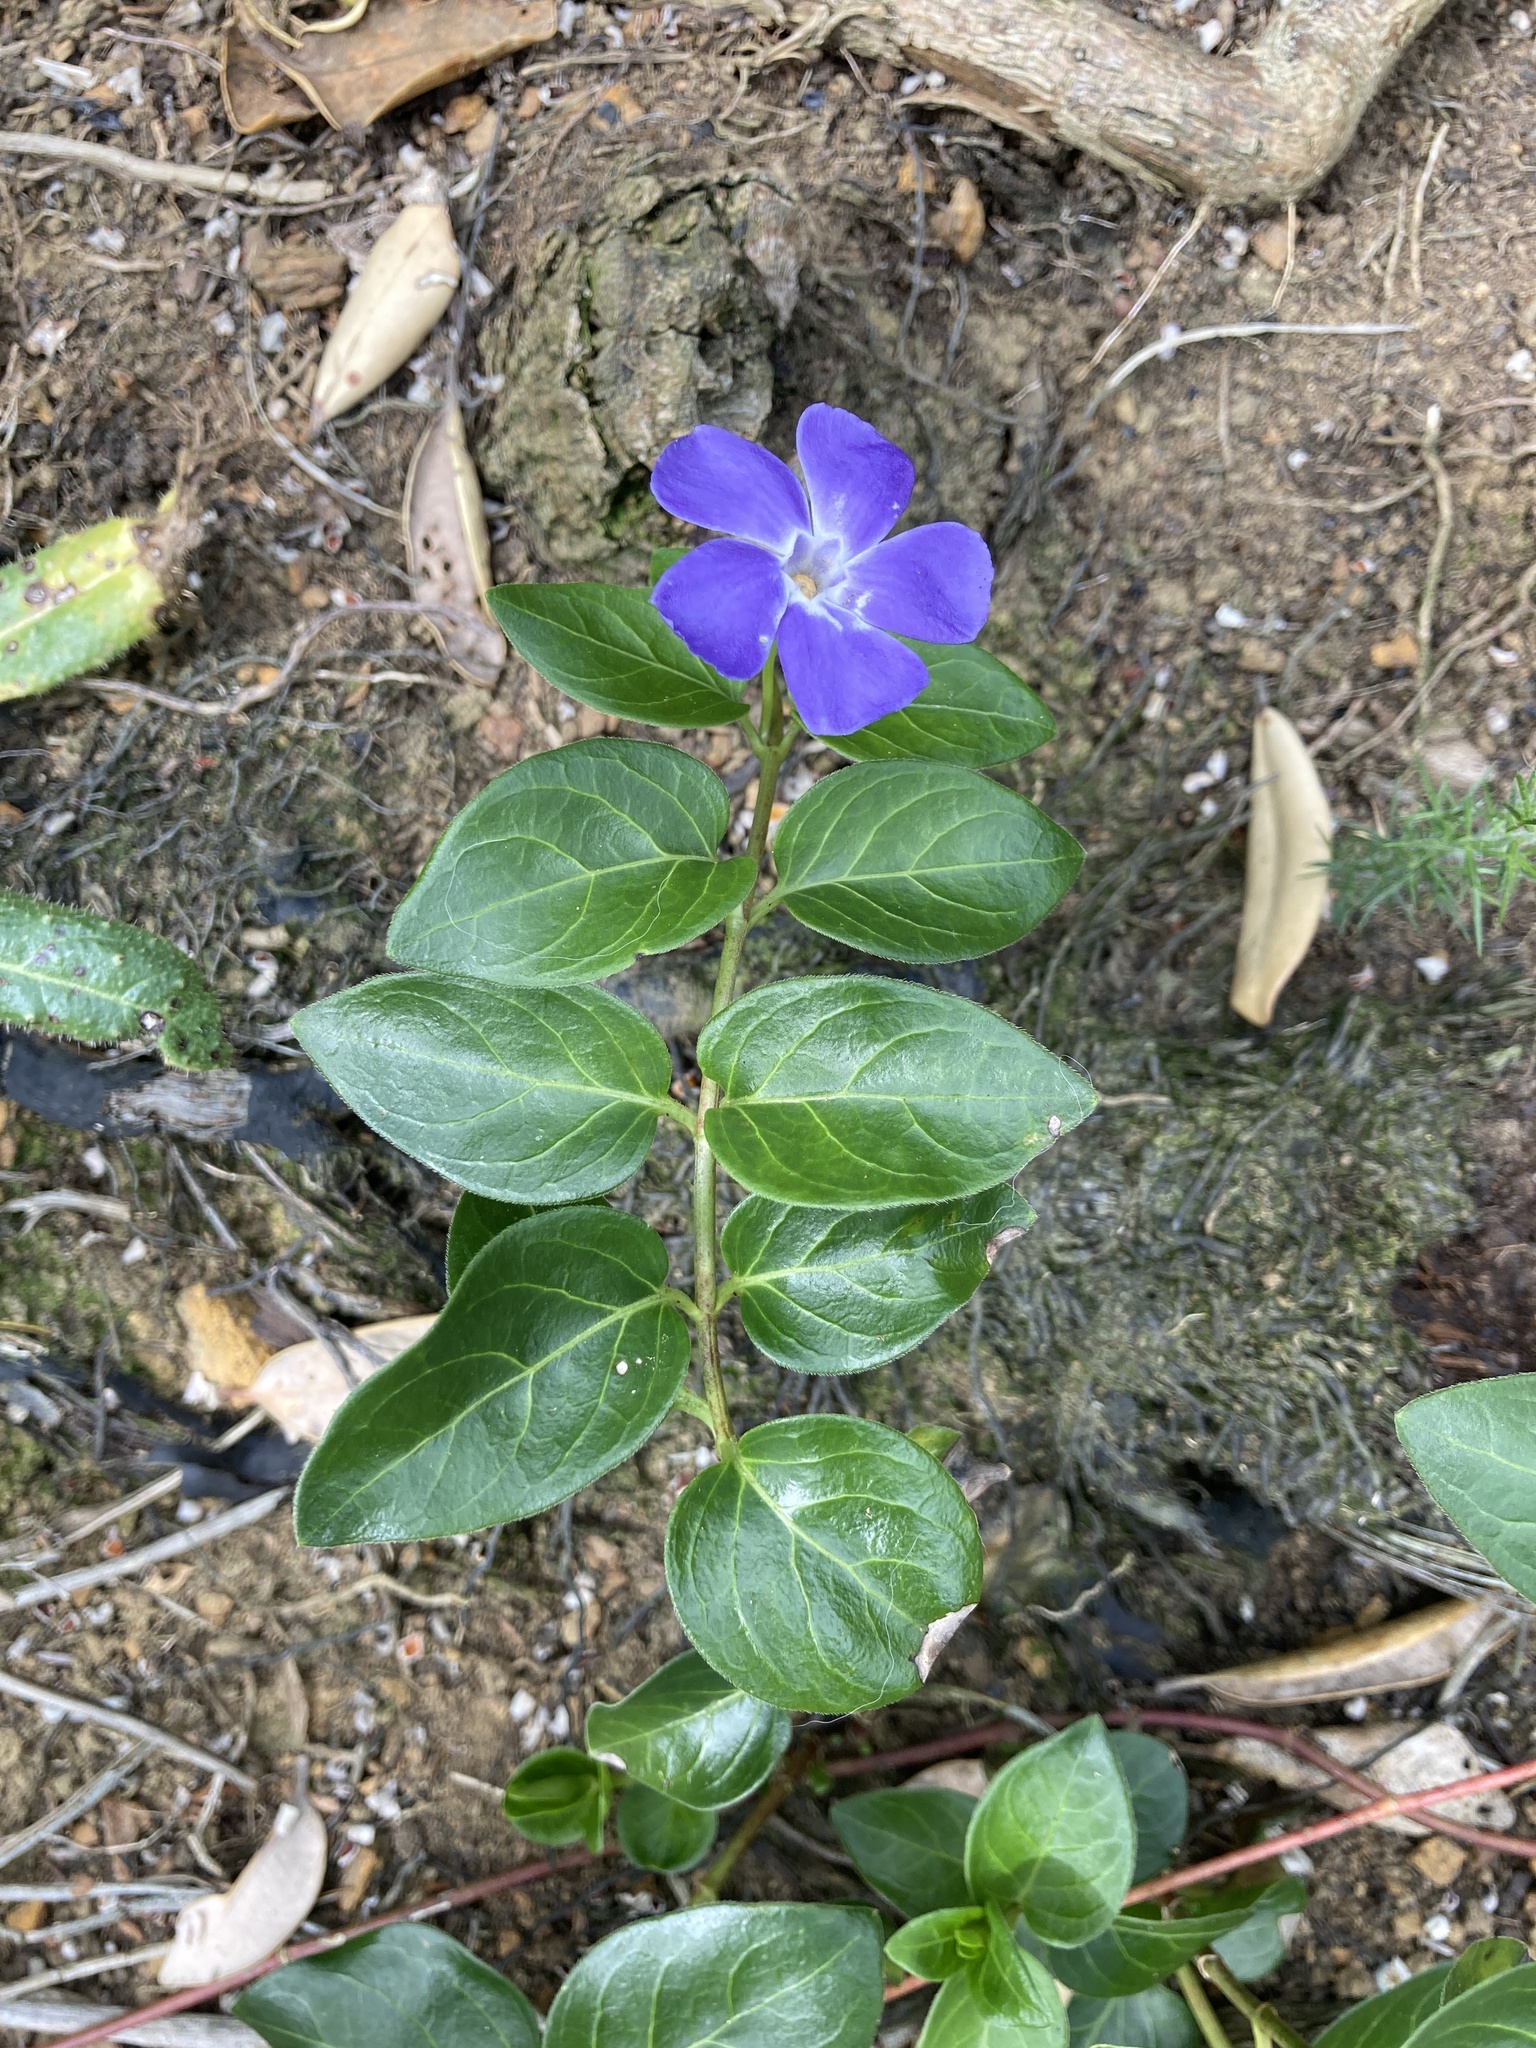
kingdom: Plantae
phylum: Tracheophyta
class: Magnoliopsida
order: Gentianales
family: Apocynaceae
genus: Vinca
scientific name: Vinca major
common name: Greater periwinkle
